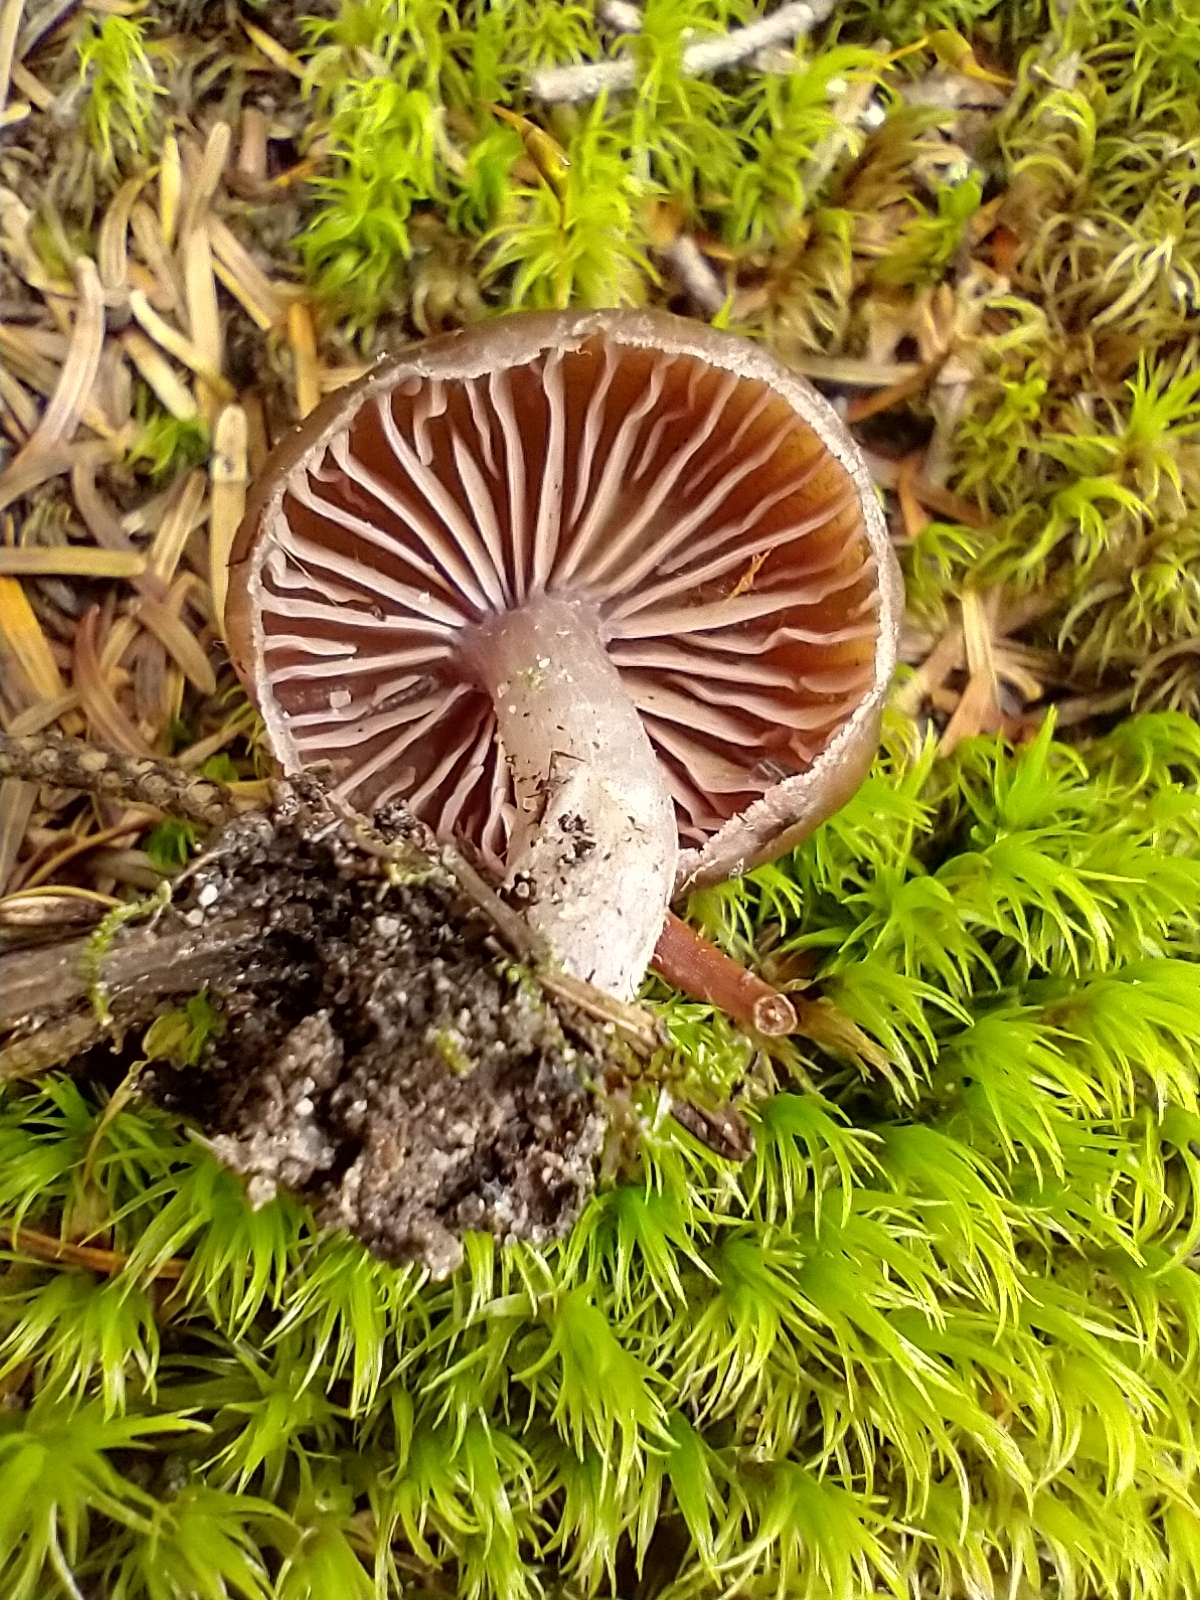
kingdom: Fungi
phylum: Basidiomycota
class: Agaricomycetes
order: Agaricales
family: Cortinariaceae
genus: Cortinarius
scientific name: Cortinarius evernius
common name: Silky webcap
